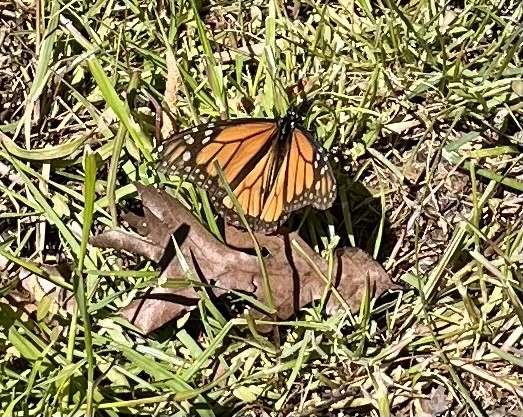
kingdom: Animalia
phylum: Arthropoda
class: Insecta
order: Lepidoptera
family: Nymphalidae
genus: Danaus
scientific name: Danaus plexippus
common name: Monarch
